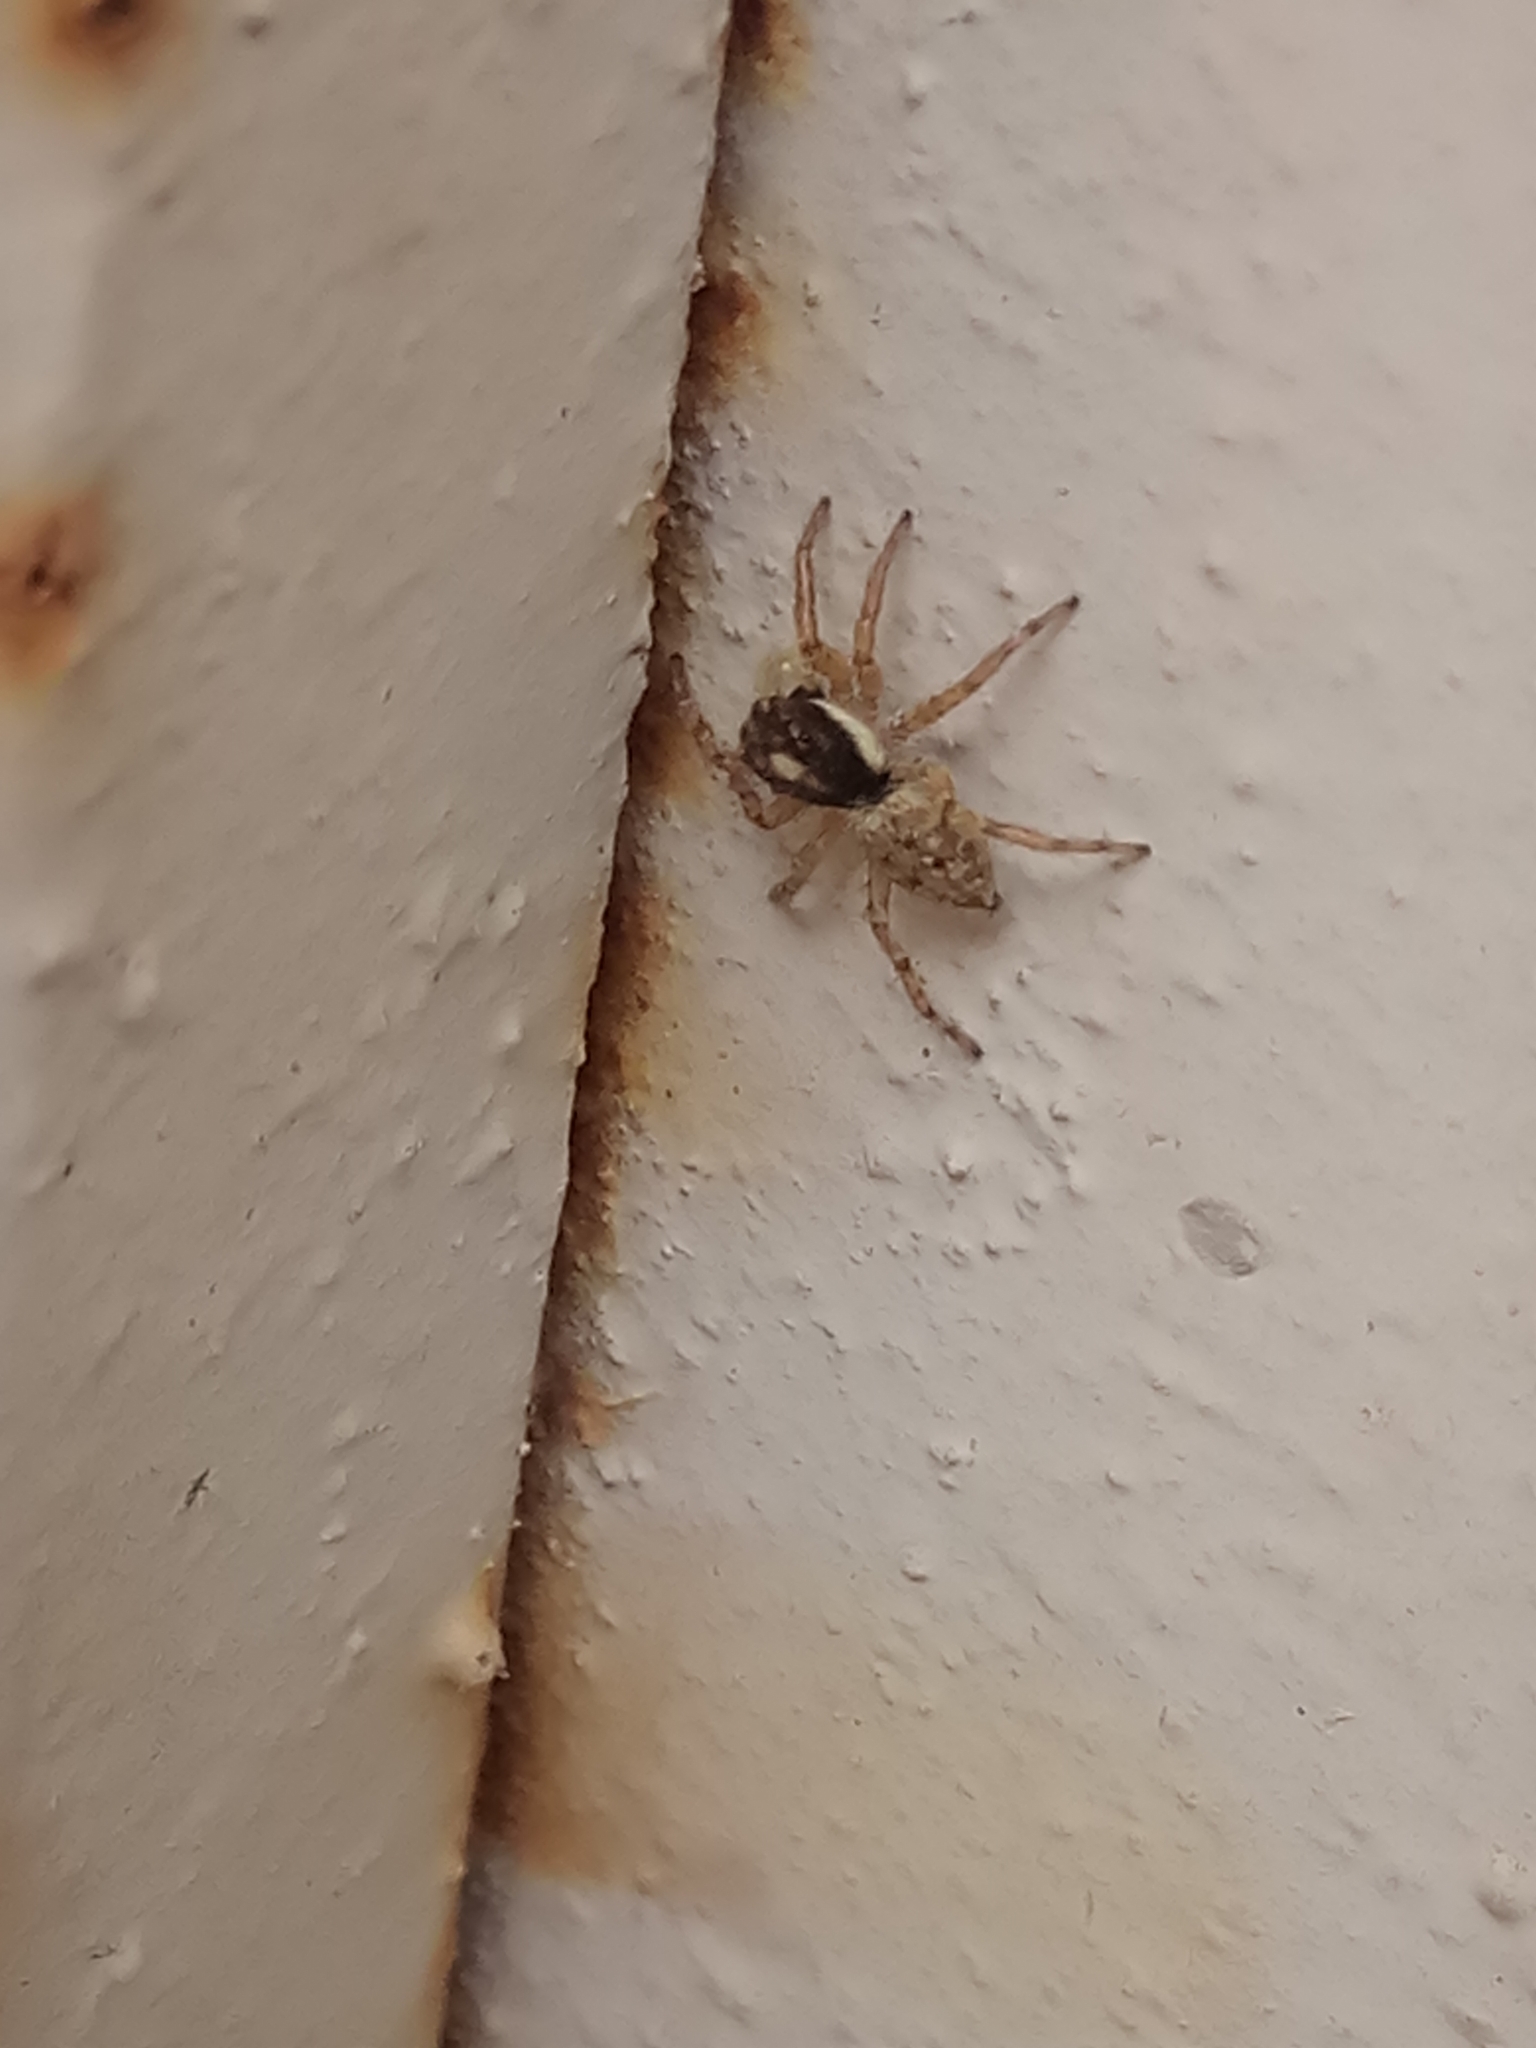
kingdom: Animalia
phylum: Arthropoda
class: Arachnida
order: Araneae
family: Salticidae
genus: Menemerus
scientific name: Menemerus semilimbatus
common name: Jumping spider
